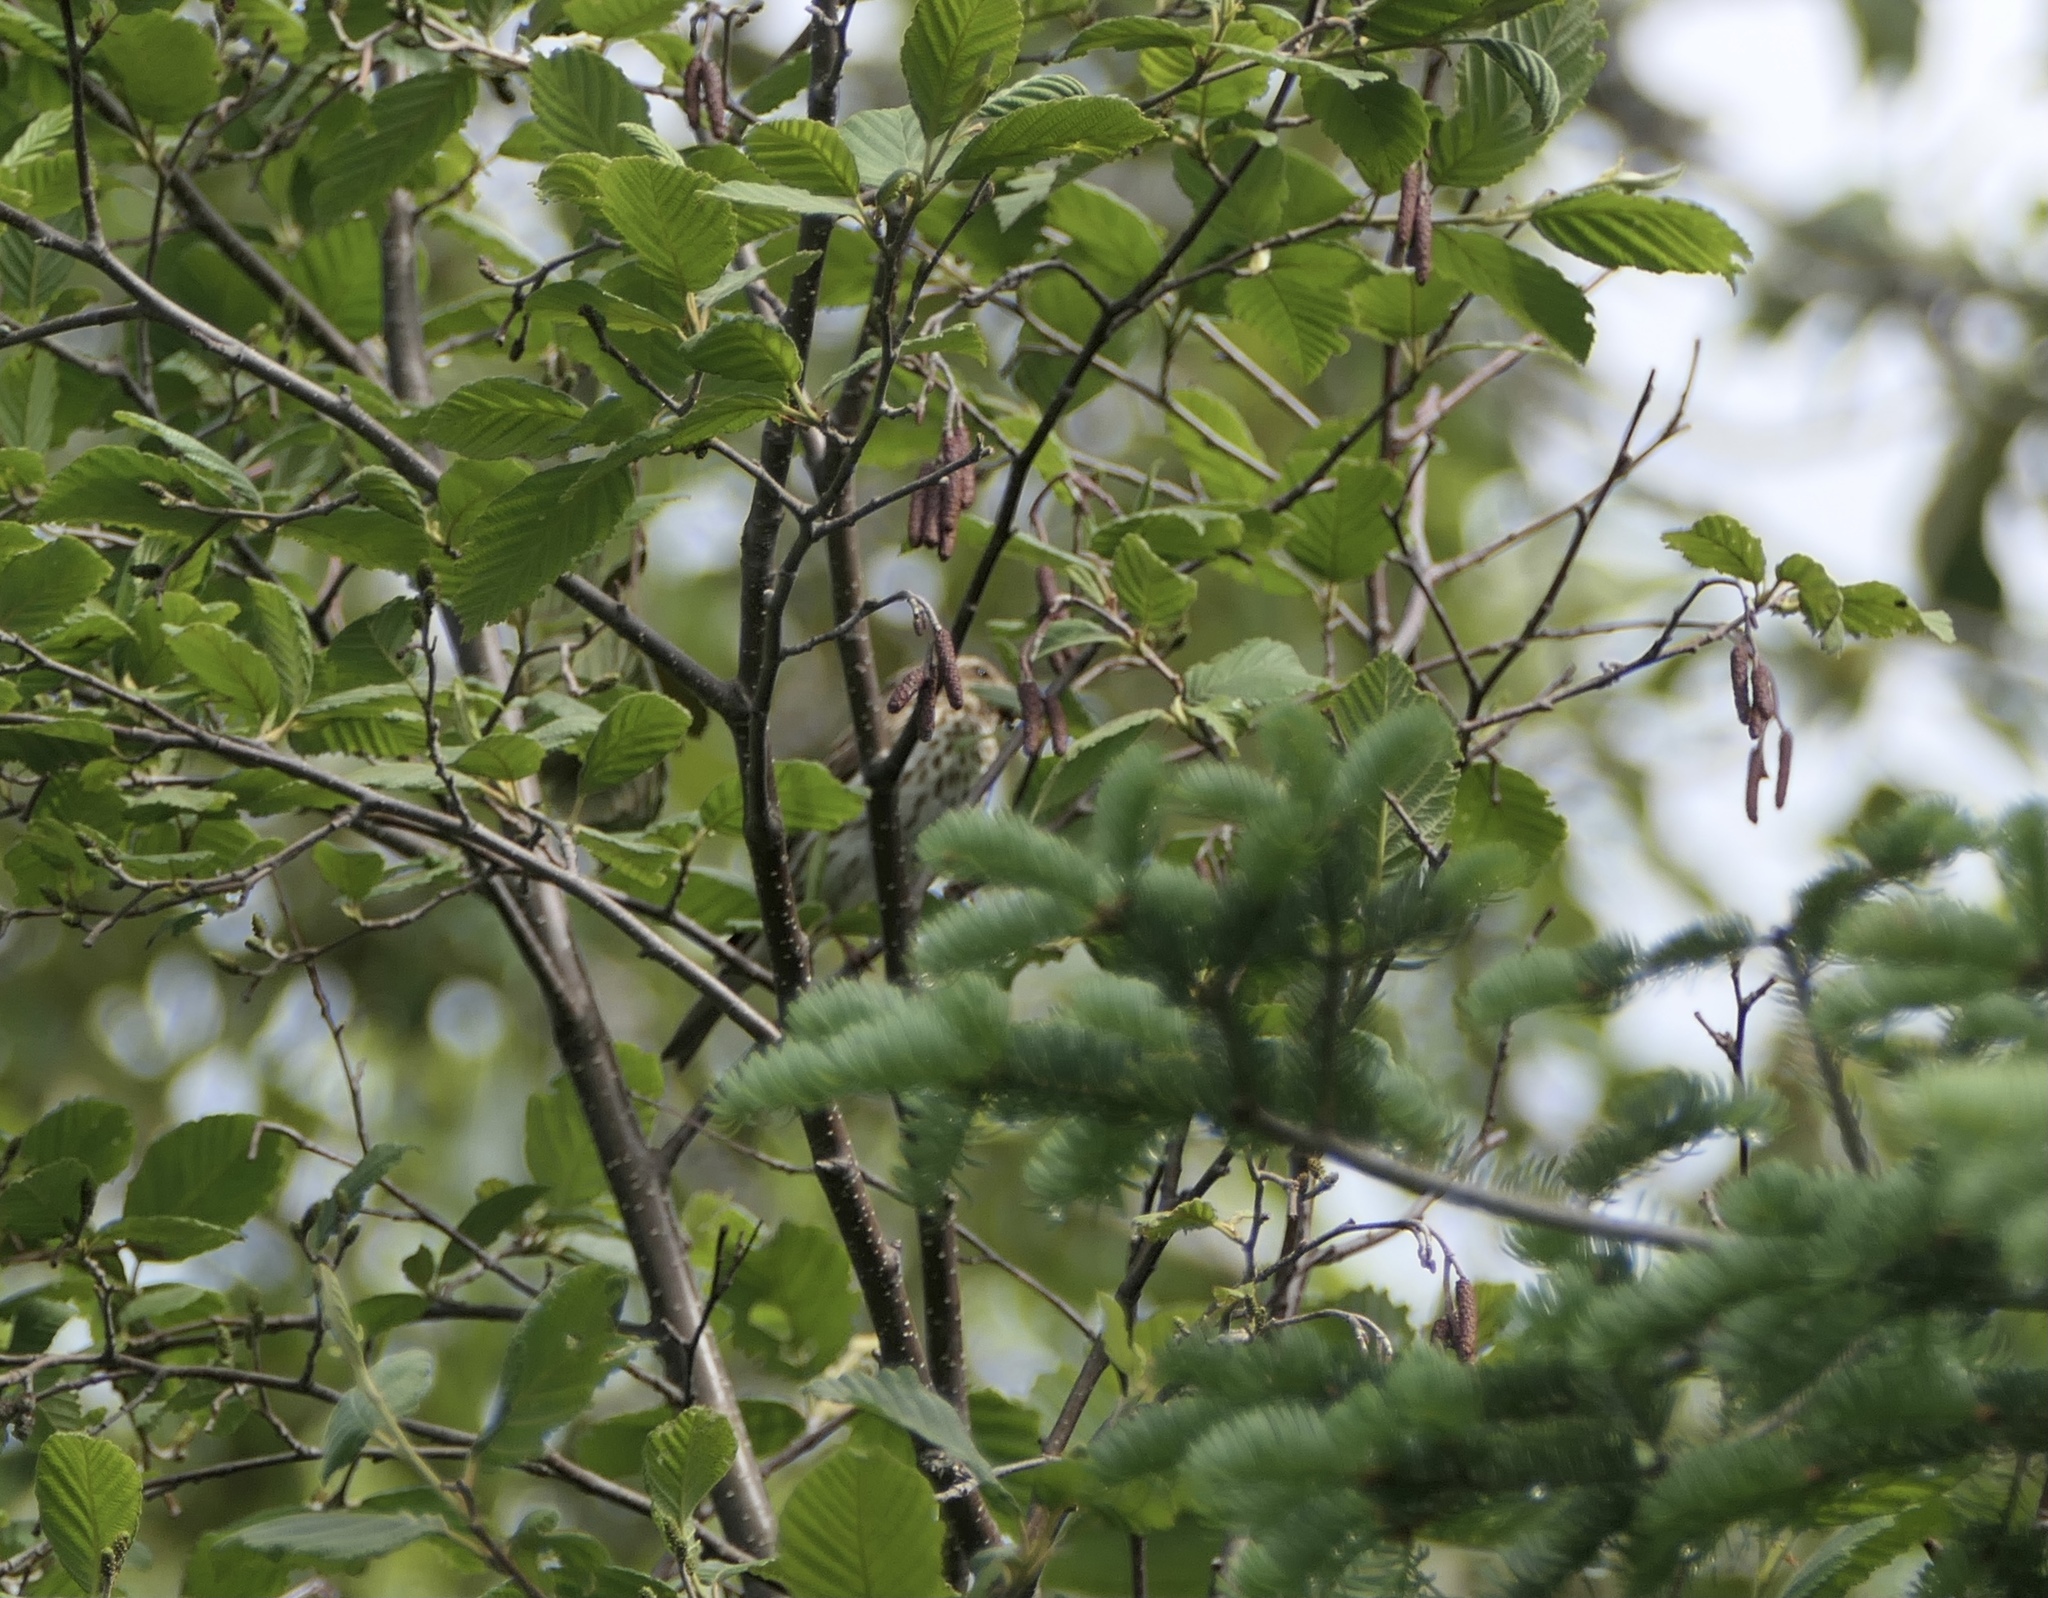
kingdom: Animalia
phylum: Chordata
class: Aves
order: Passeriformes
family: Fringillidae
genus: Haemorhous
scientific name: Haemorhous purpureus
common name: Purple finch
